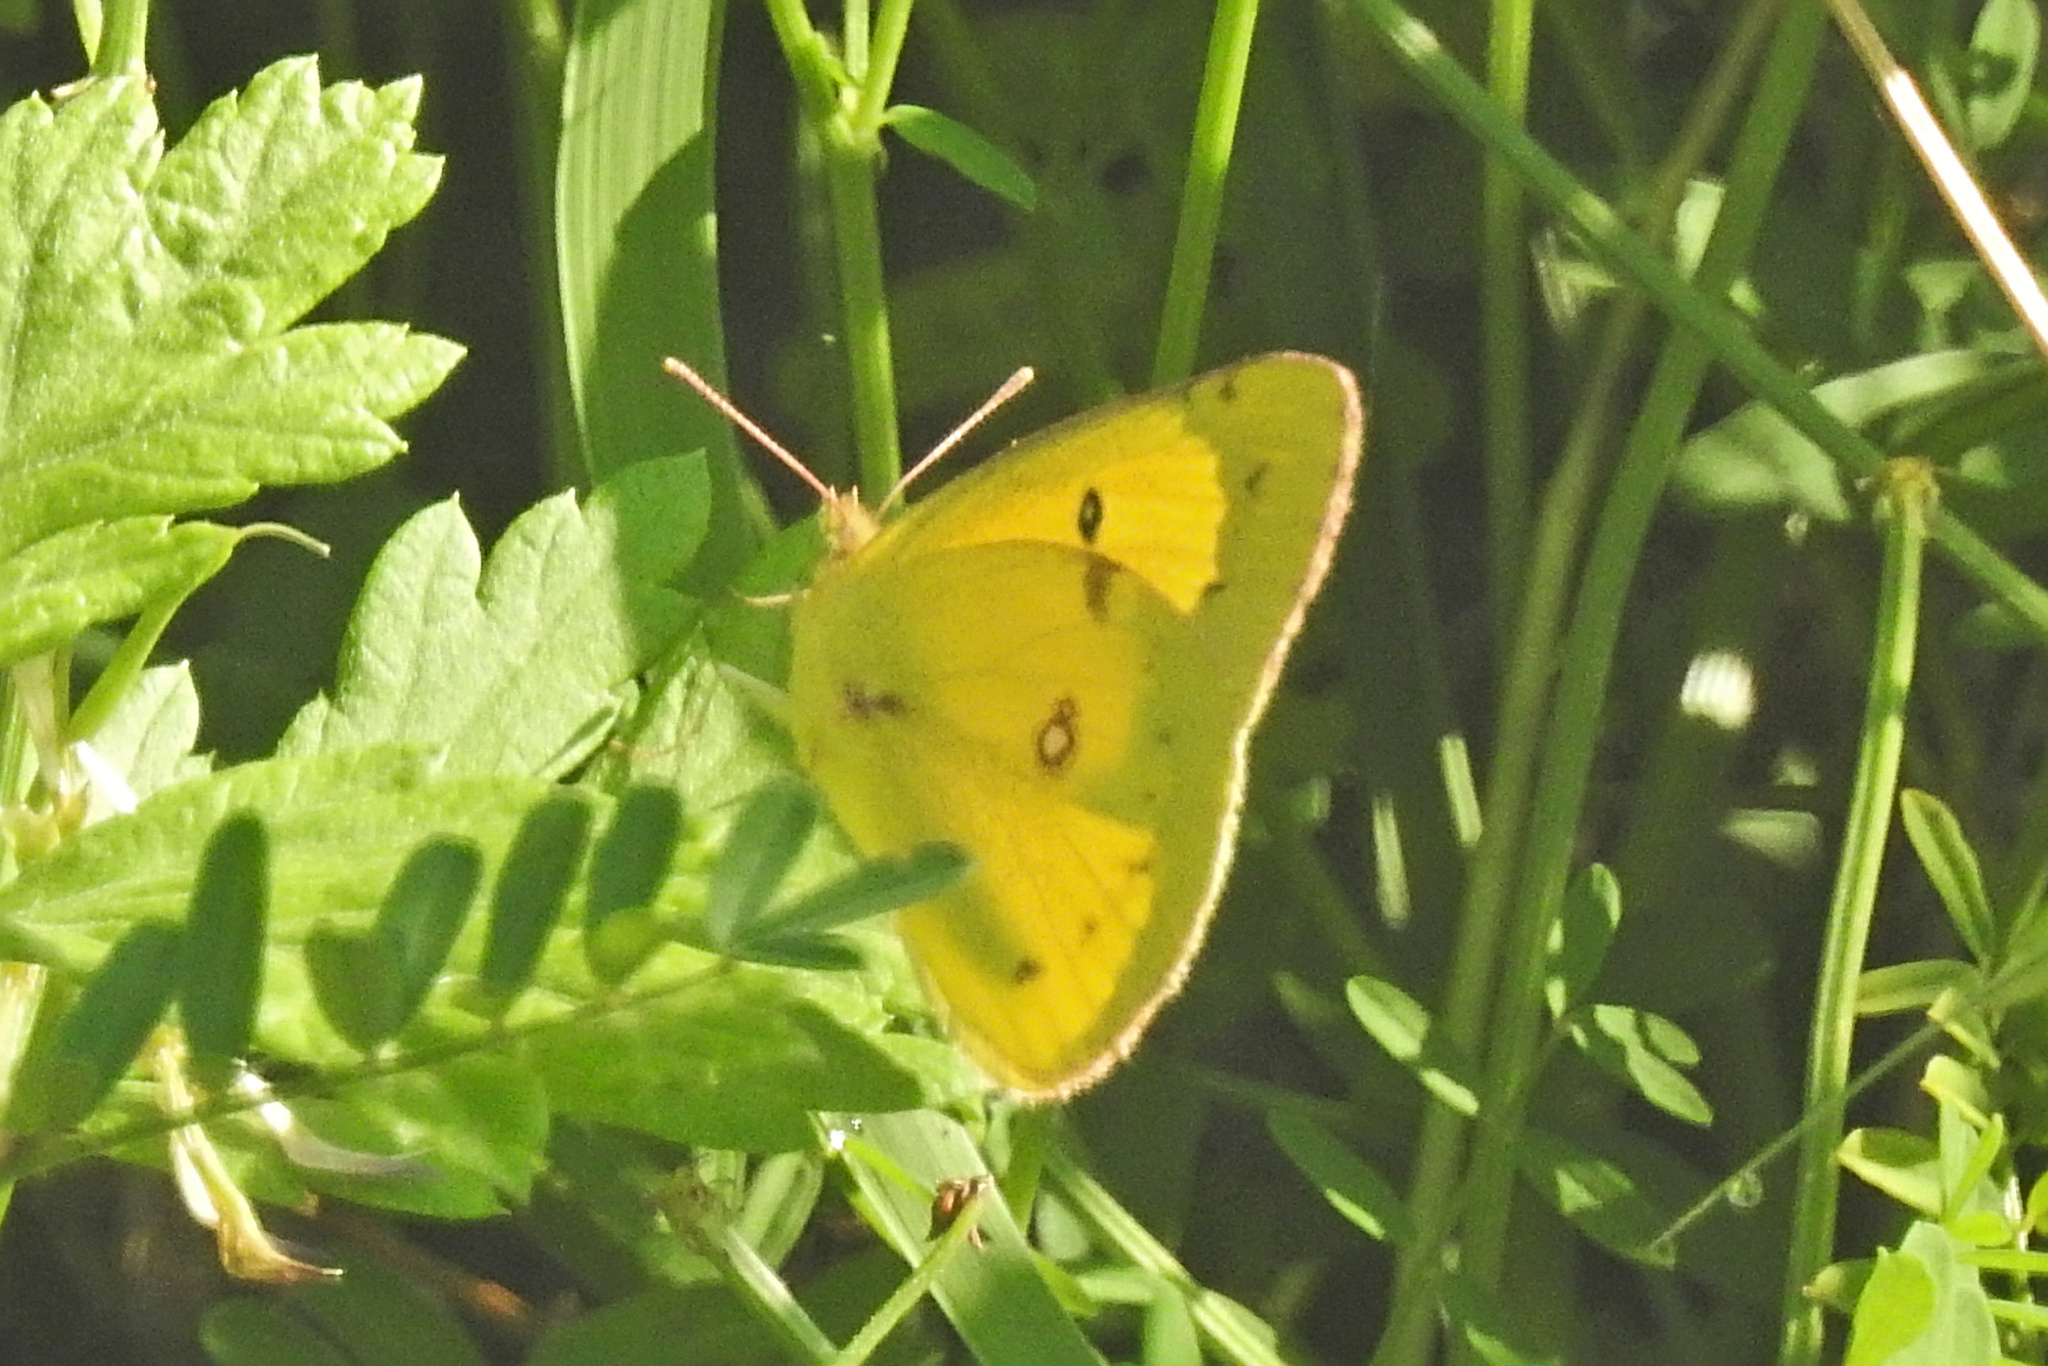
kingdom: Animalia
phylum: Arthropoda
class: Insecta
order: Lepidoptera
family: Pieridae
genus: Colias
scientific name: Colias eurytheme
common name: Alfalfa butterfly
